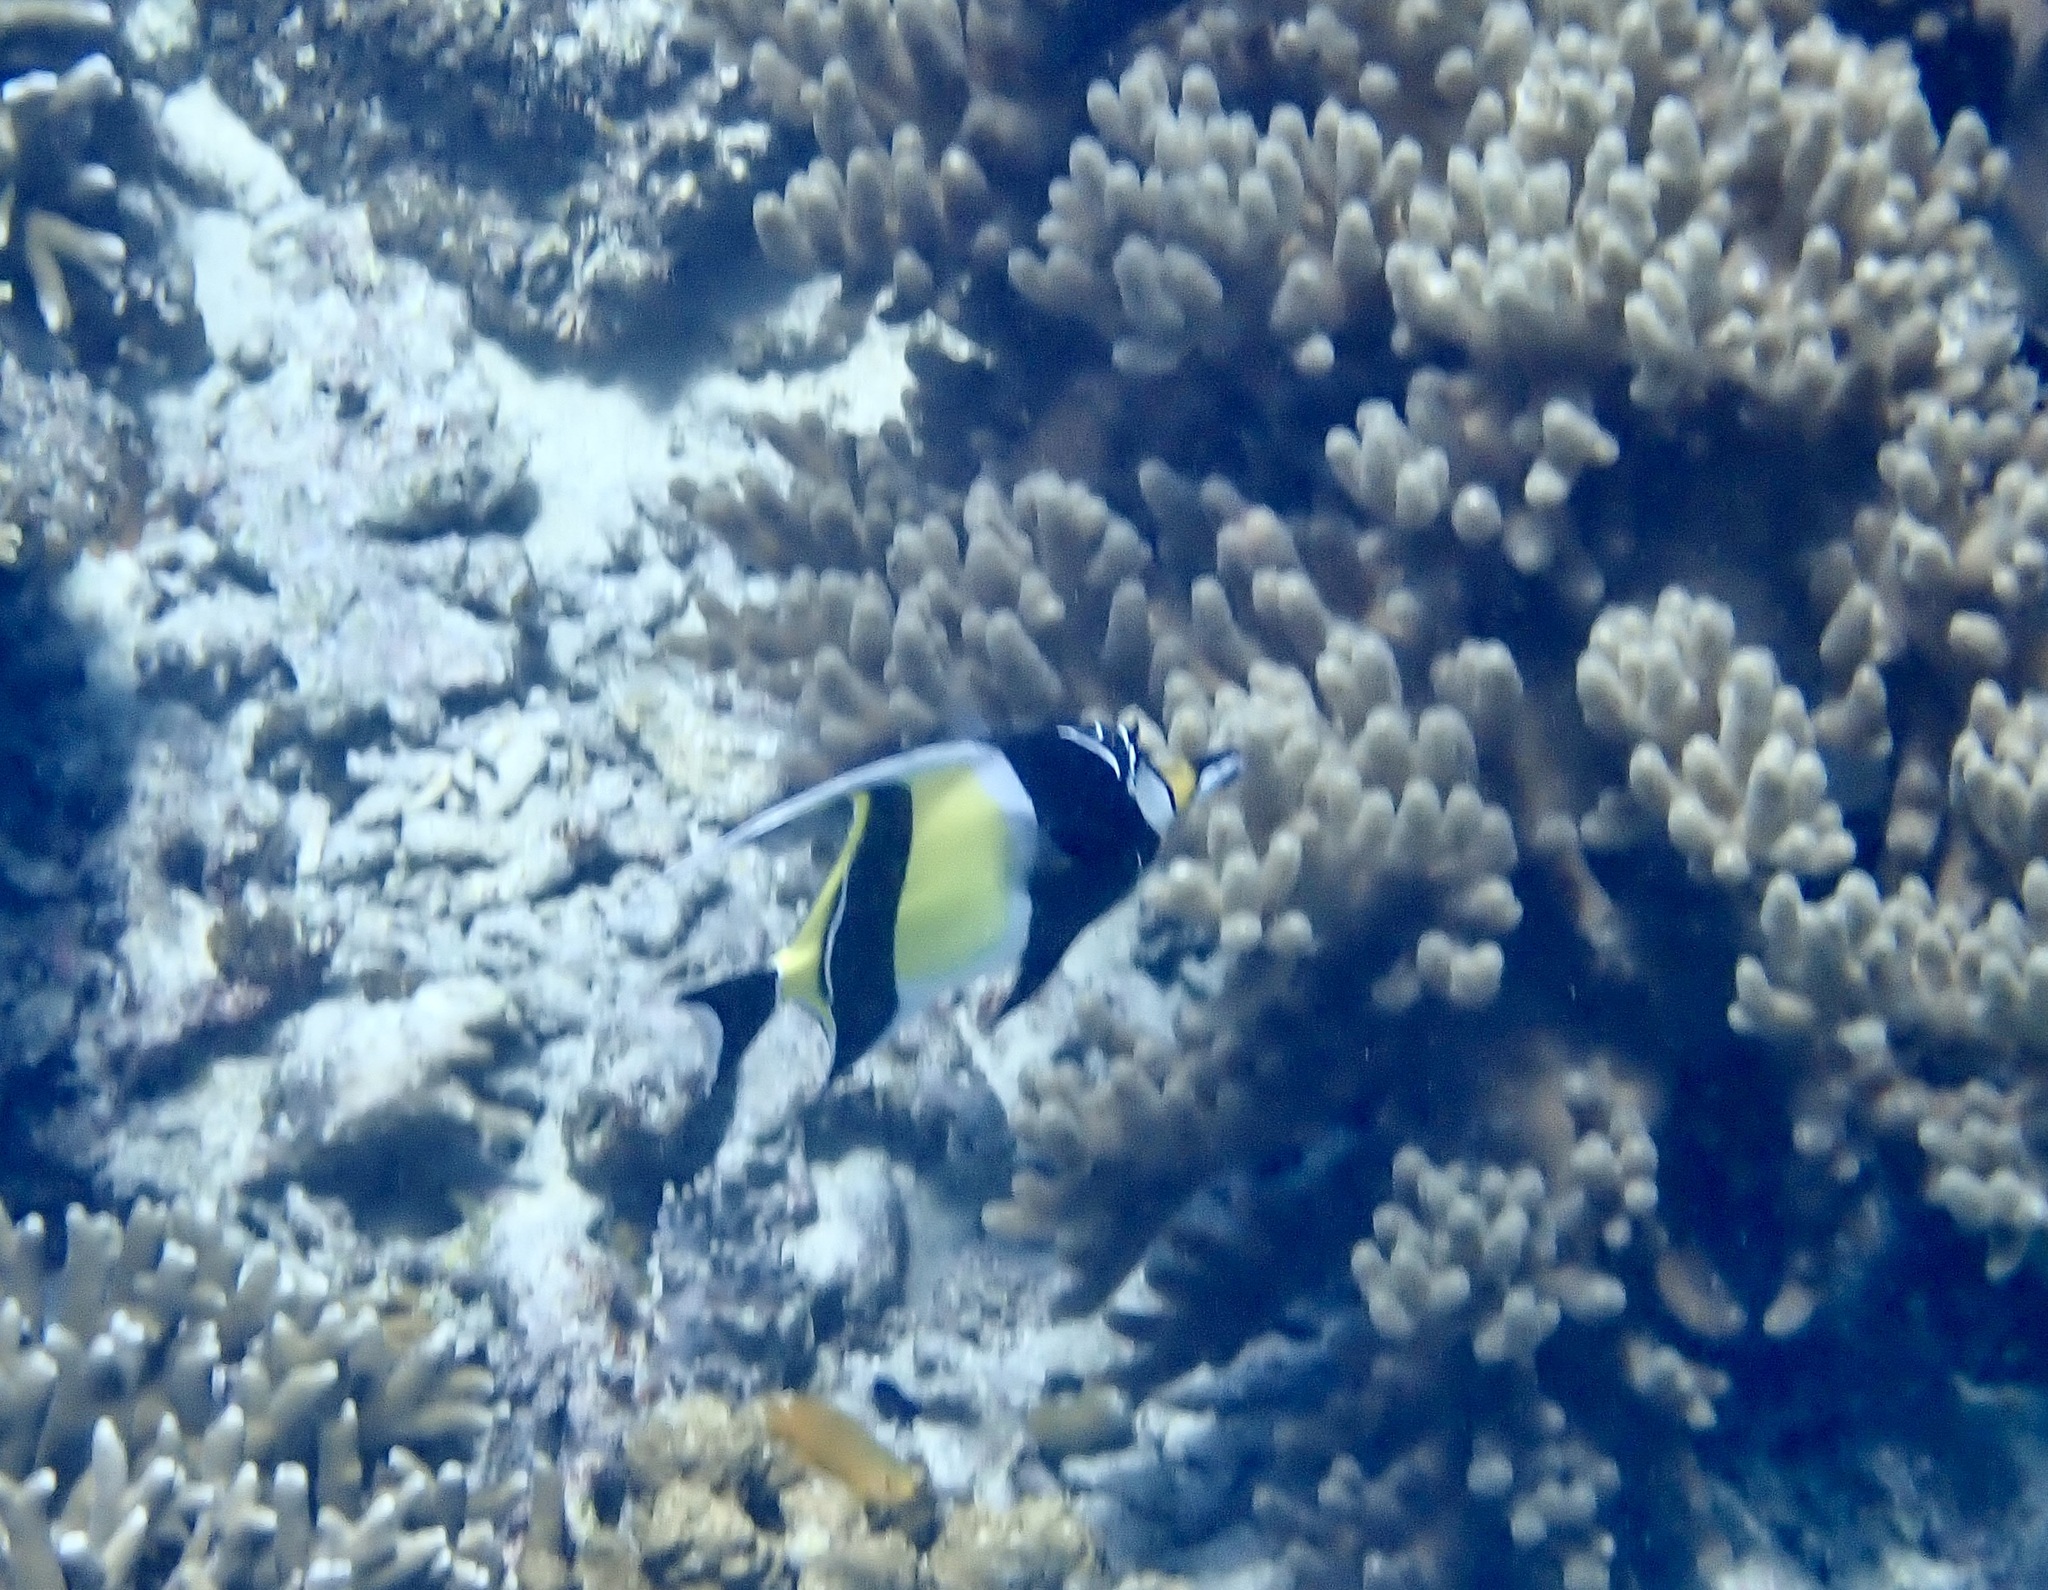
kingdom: Animalia
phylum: Chordata
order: Perciformes
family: Zanclidae
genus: Zanclus
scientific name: Zanclus cornutus
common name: Moorish idol
